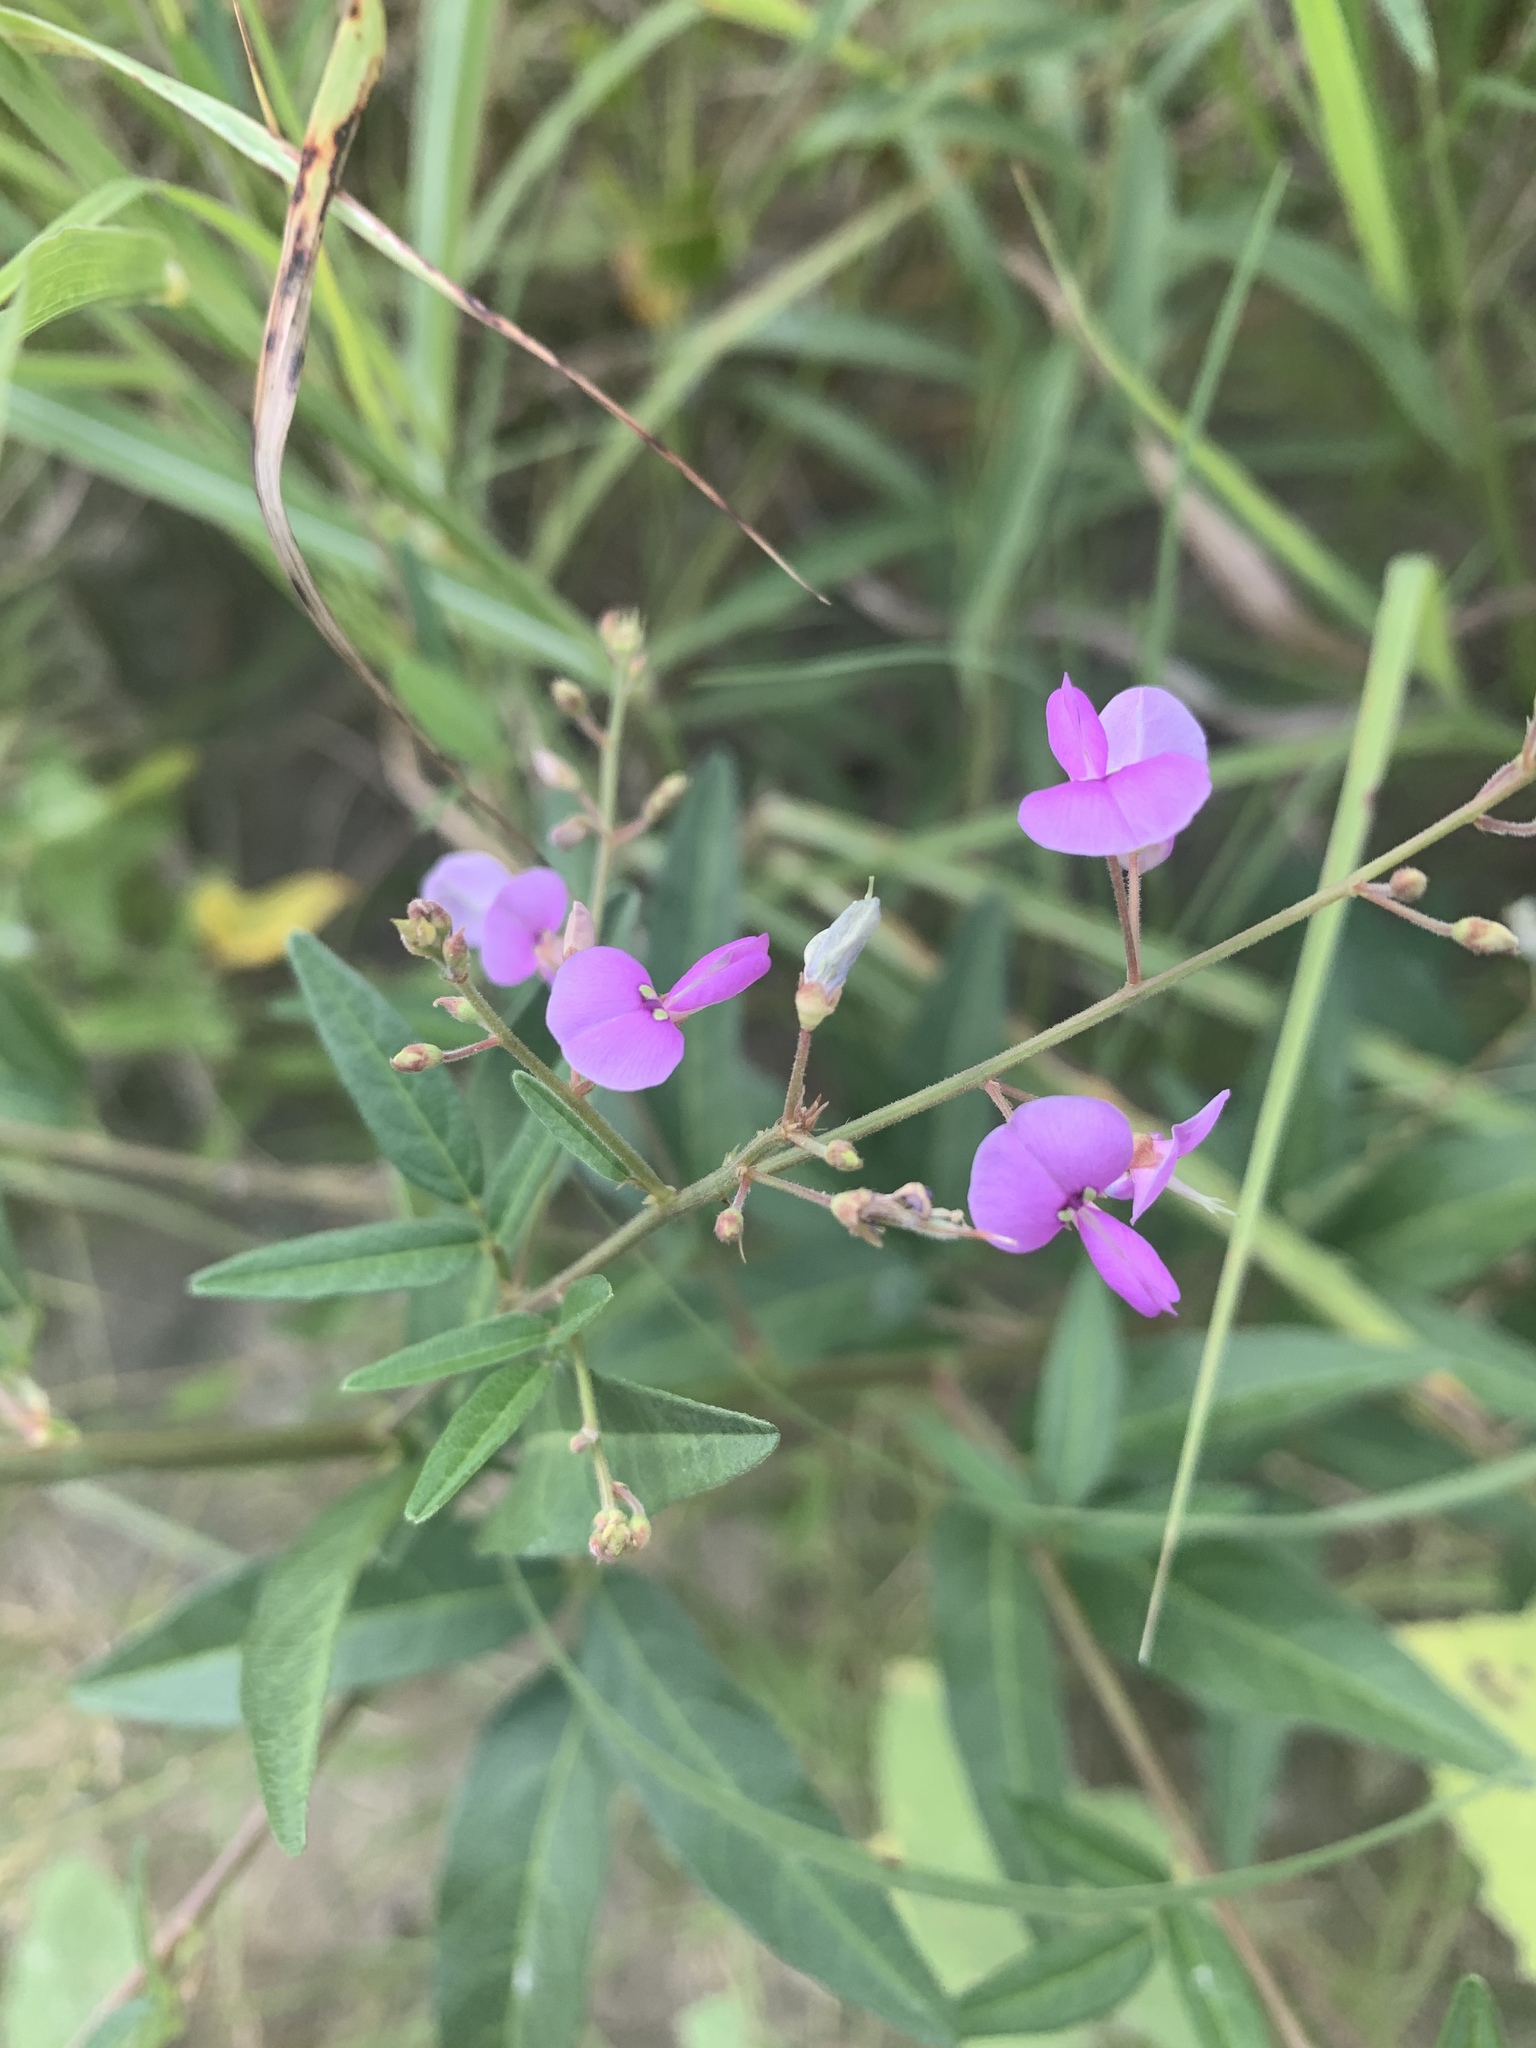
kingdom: Plantae
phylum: Tracheophyta
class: Magnoliopsida
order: Fabales
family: Fabaceae
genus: Desmodium
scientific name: Desmodium paniculatum
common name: Panicled tick-clover
